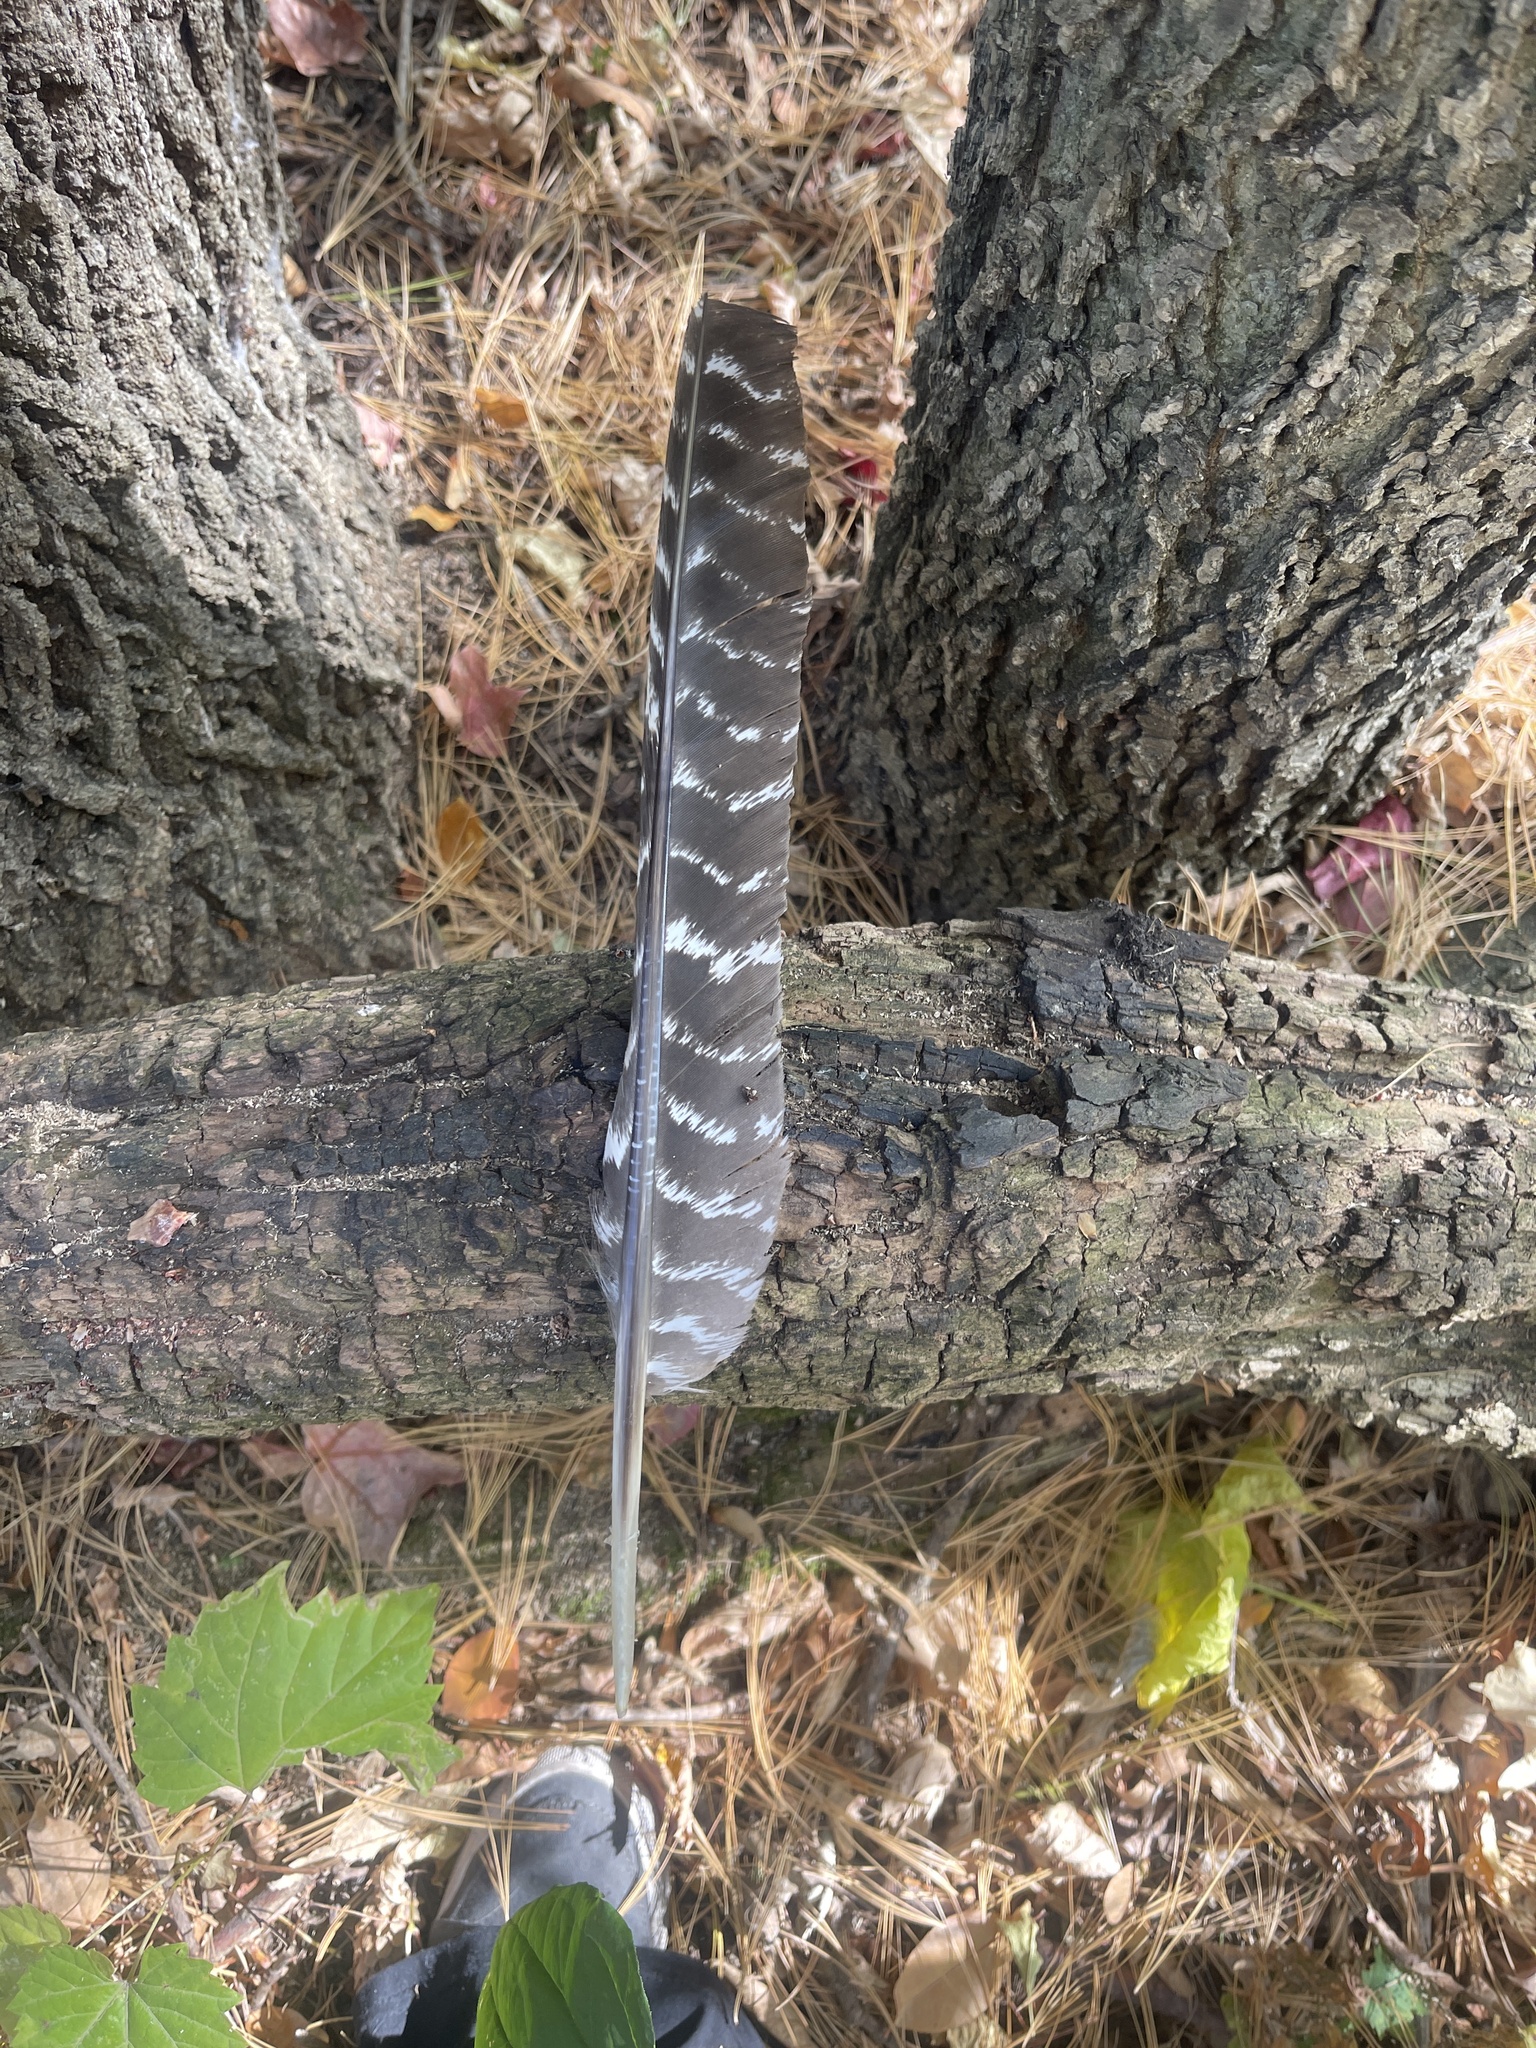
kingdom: Animalia
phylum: Chordata
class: Aves
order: Galliformes
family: Phasianidae
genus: Meleagris
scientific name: Meleagris gallopavo
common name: Wild turkey
